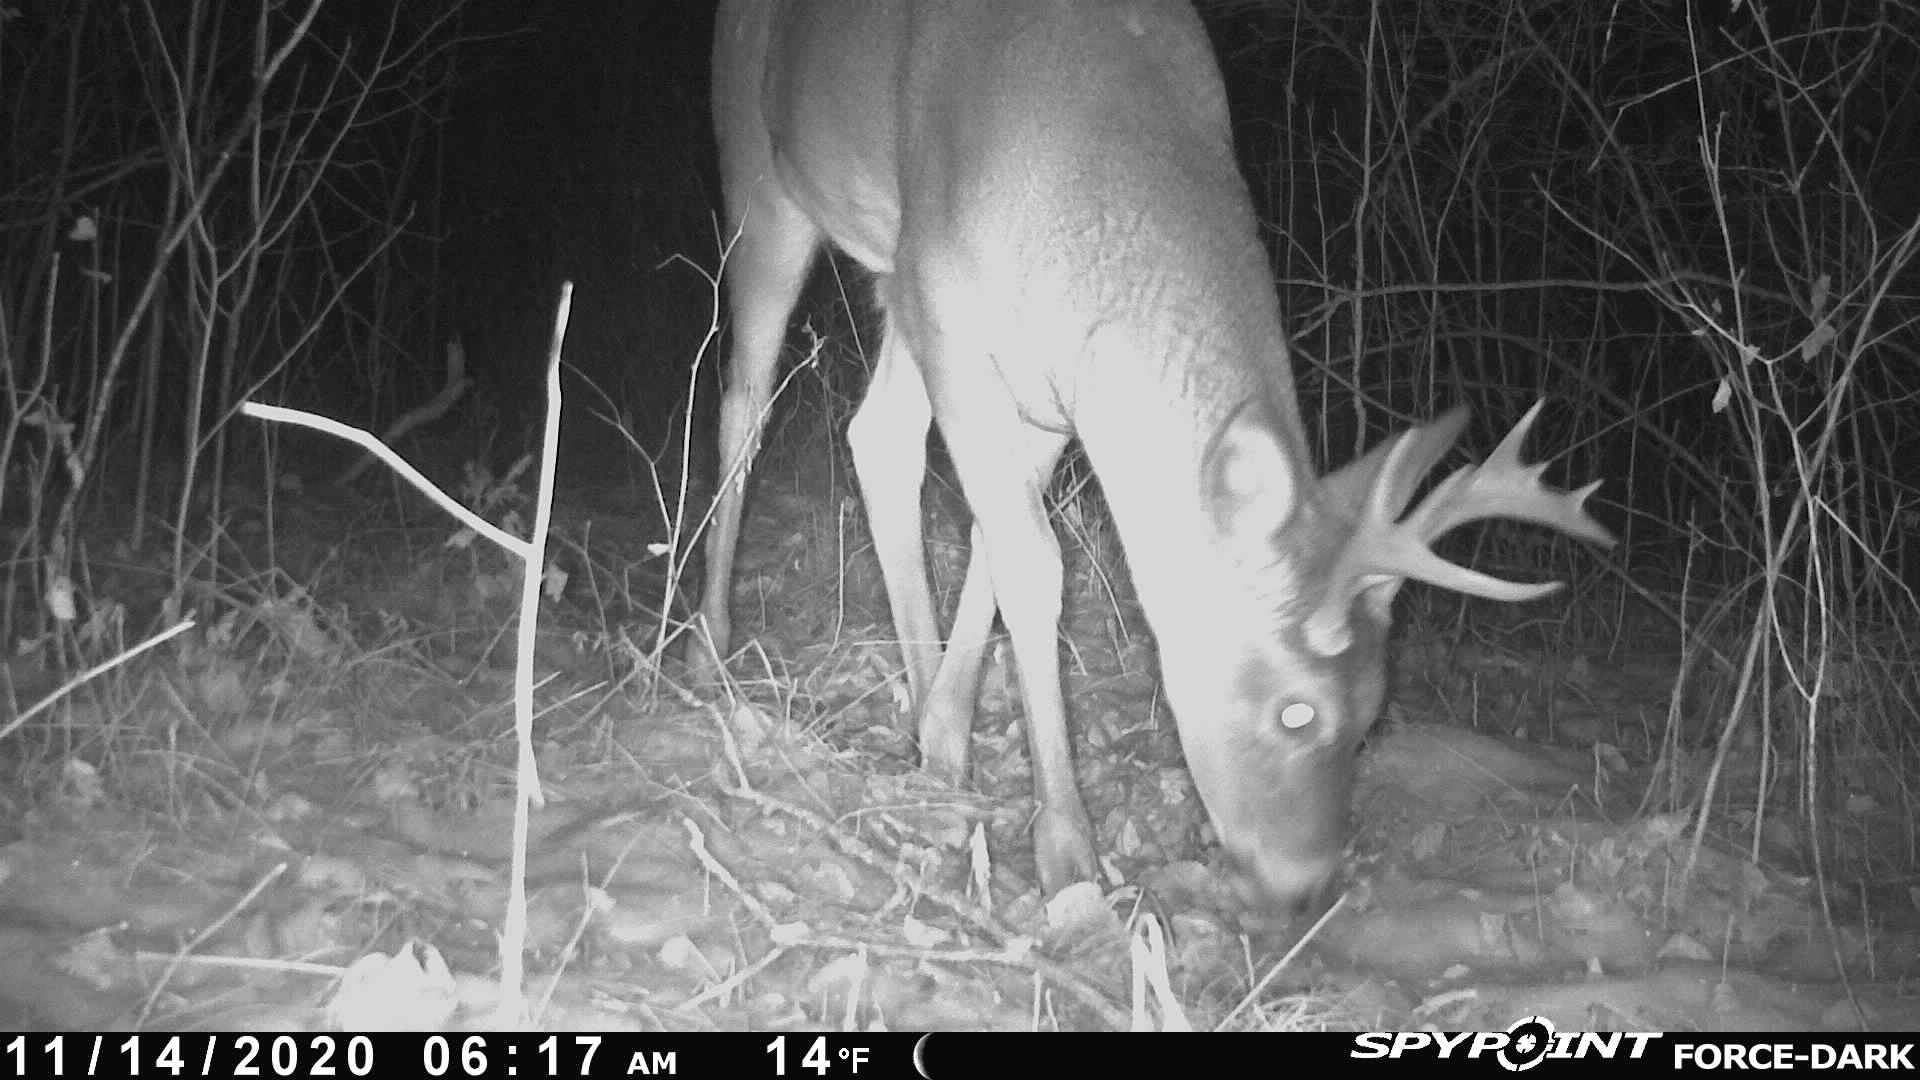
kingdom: Animalia
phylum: Chordata
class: Mammalia
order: Artiodactyla
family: Cervidae
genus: Odocoileus
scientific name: Odocoileus virginianus
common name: White-tailed deer
